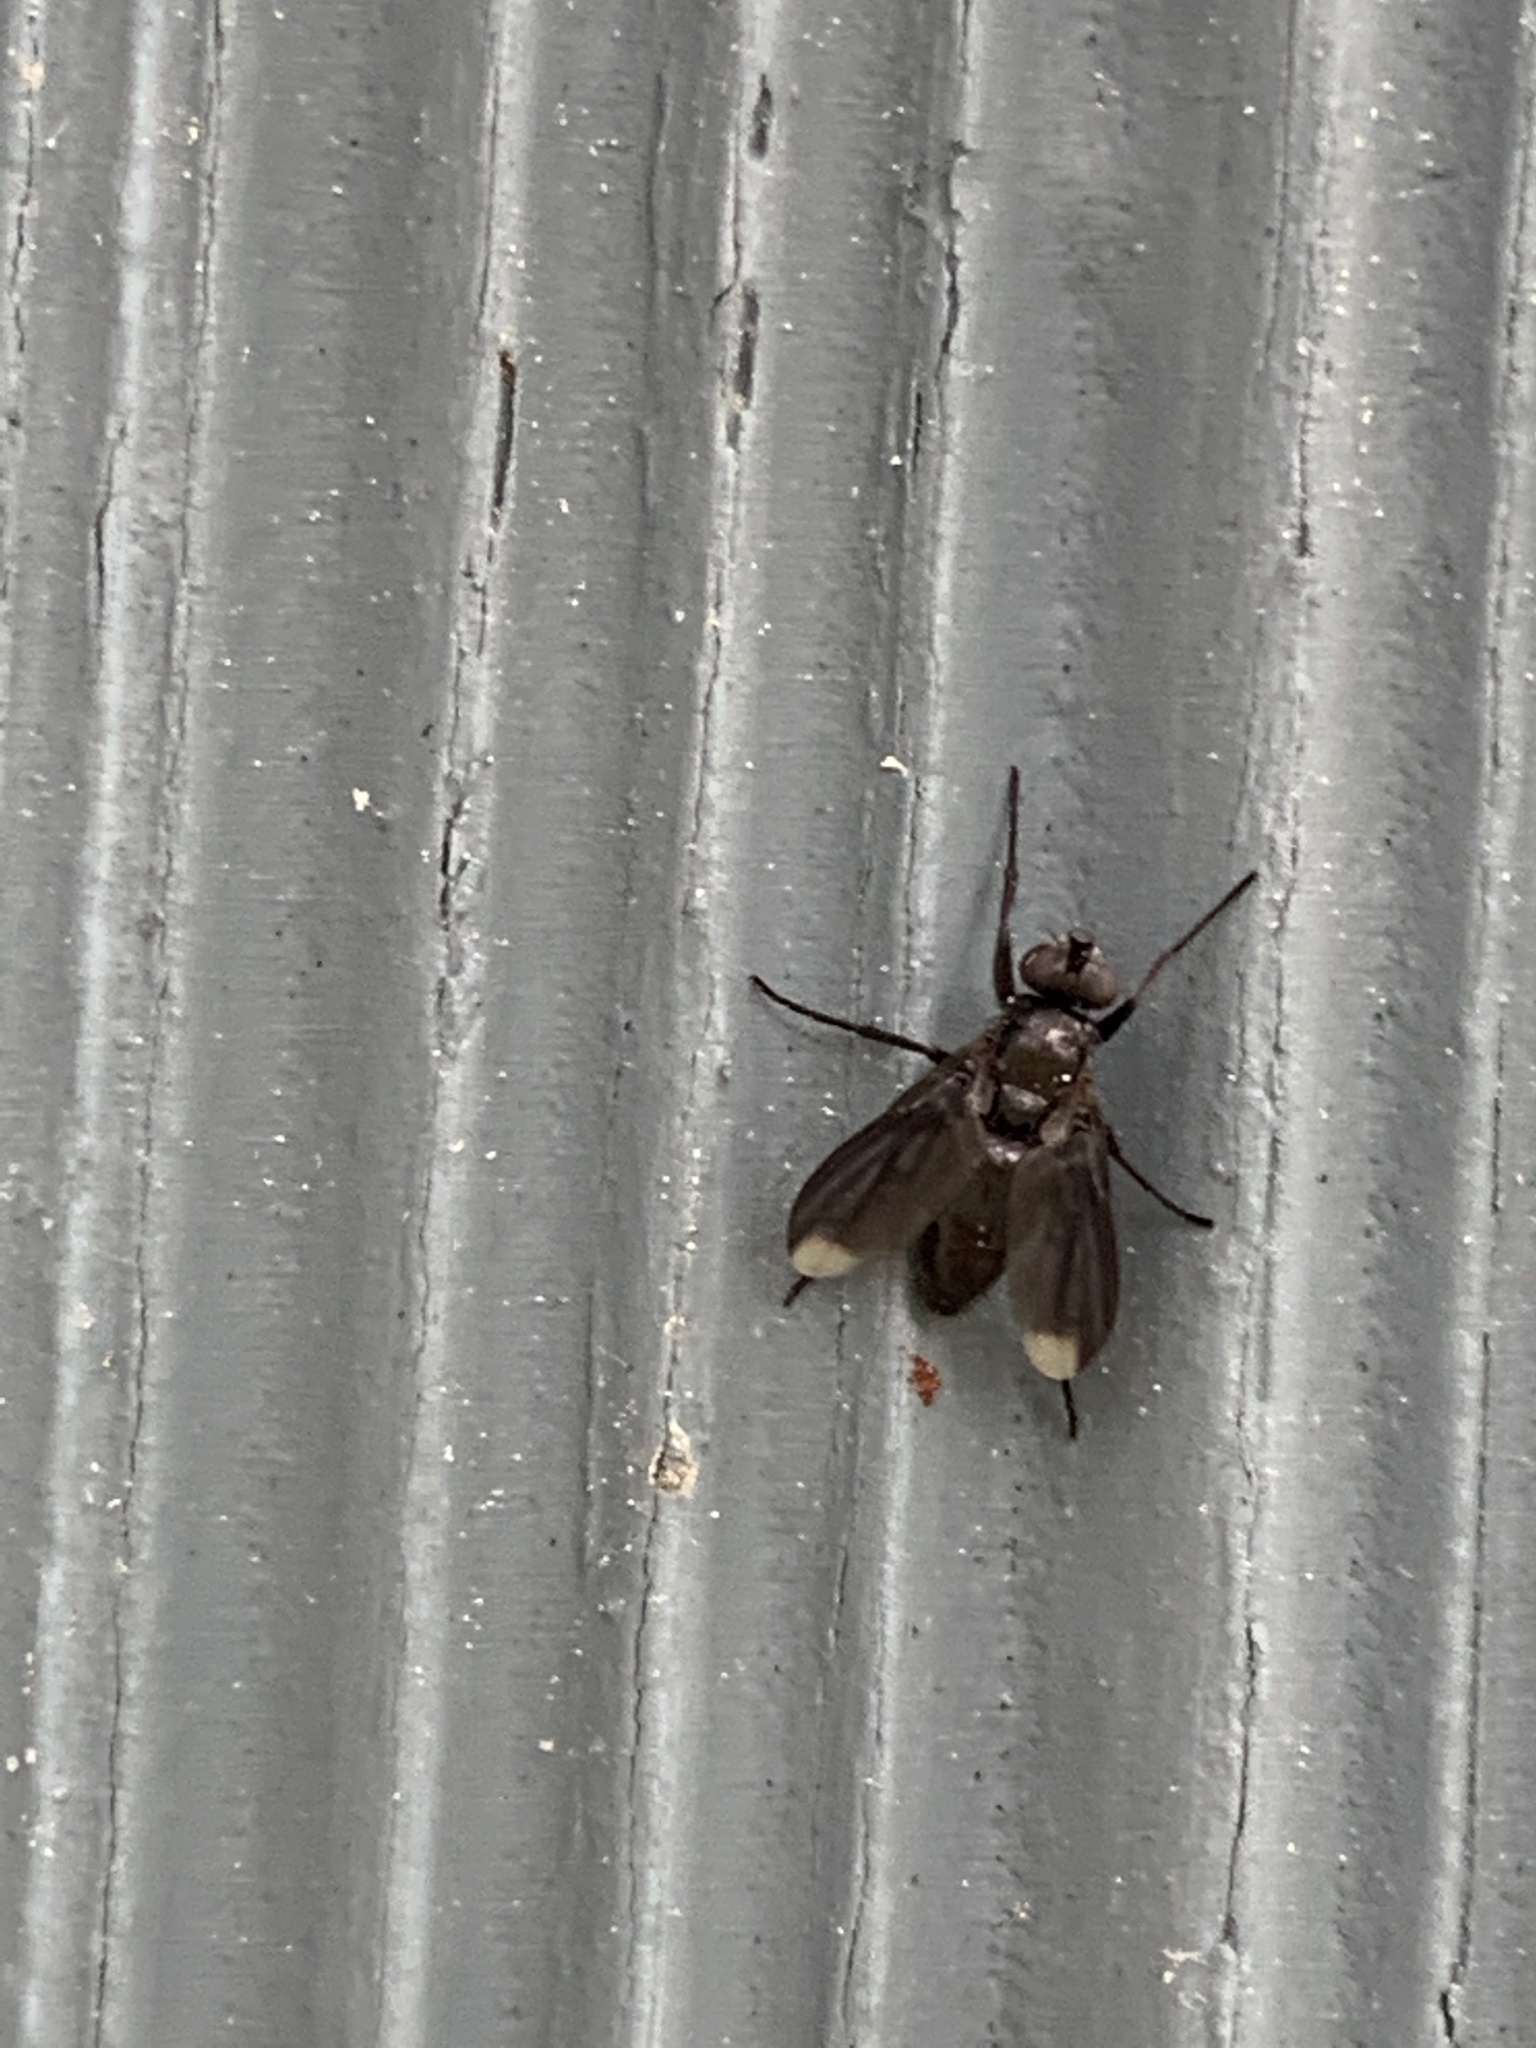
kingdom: Animalia
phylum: Arthropoda
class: Insecta
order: Diptera
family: Calliphoridae
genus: Melanophora
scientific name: Melanophora roralis
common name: Smoky-winged woodlouse-fly
